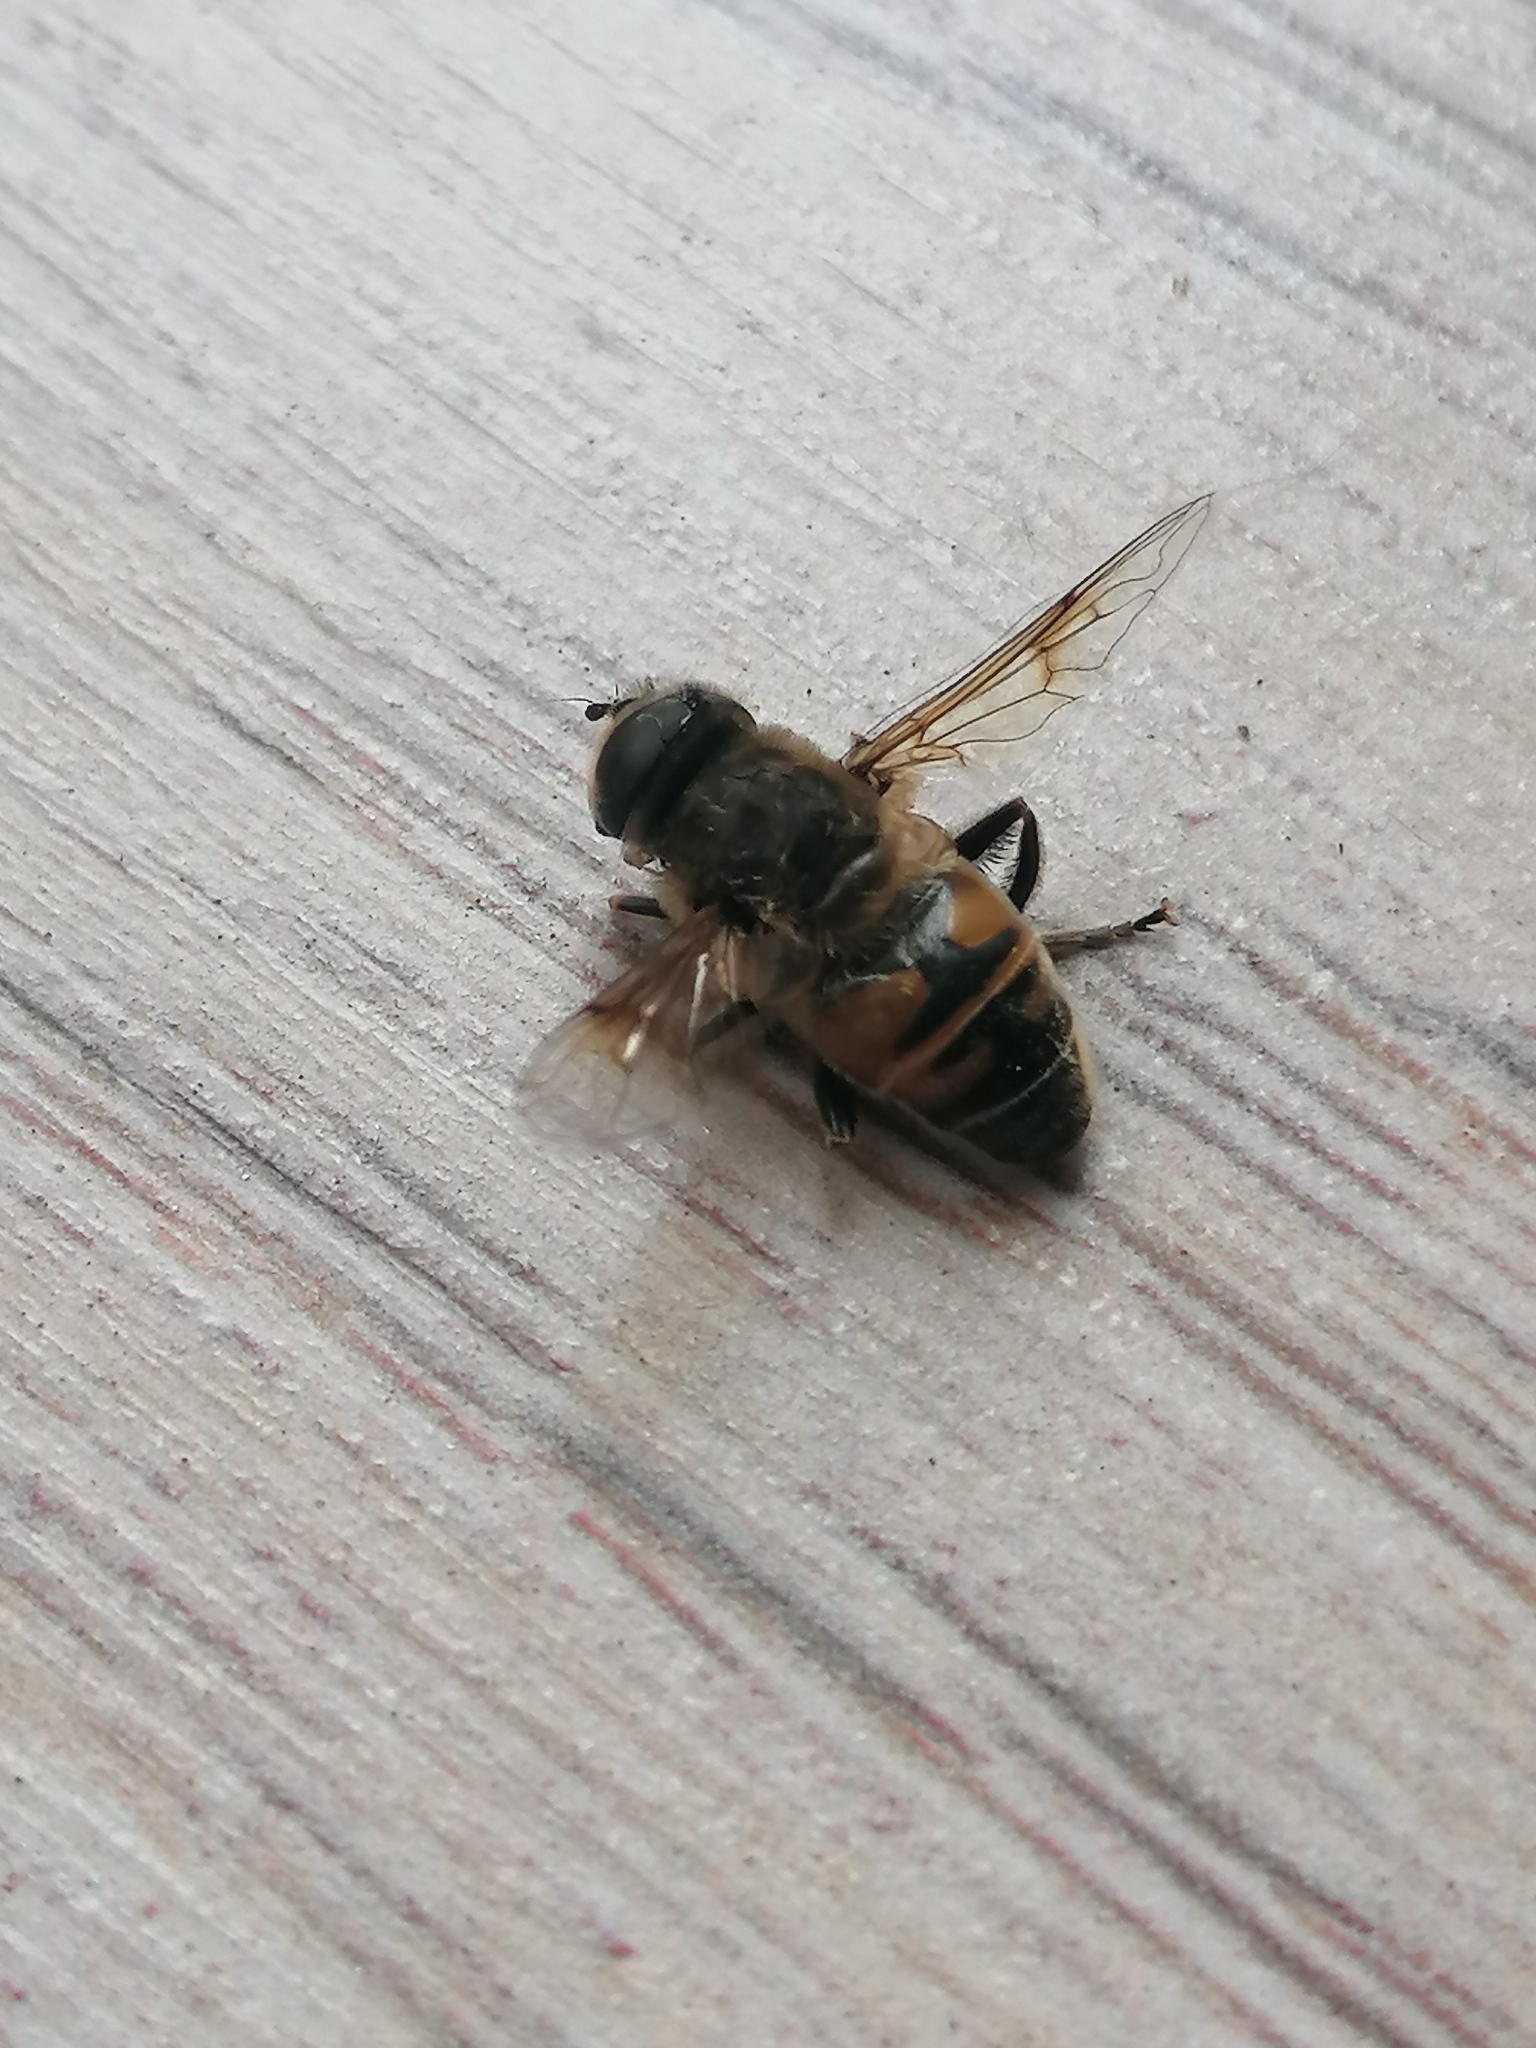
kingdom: Animalia
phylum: Arthropoda
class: Insecta
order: Diptera
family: Syrphidae
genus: Eristalis
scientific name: Eristalis tenax
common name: Drone fly
